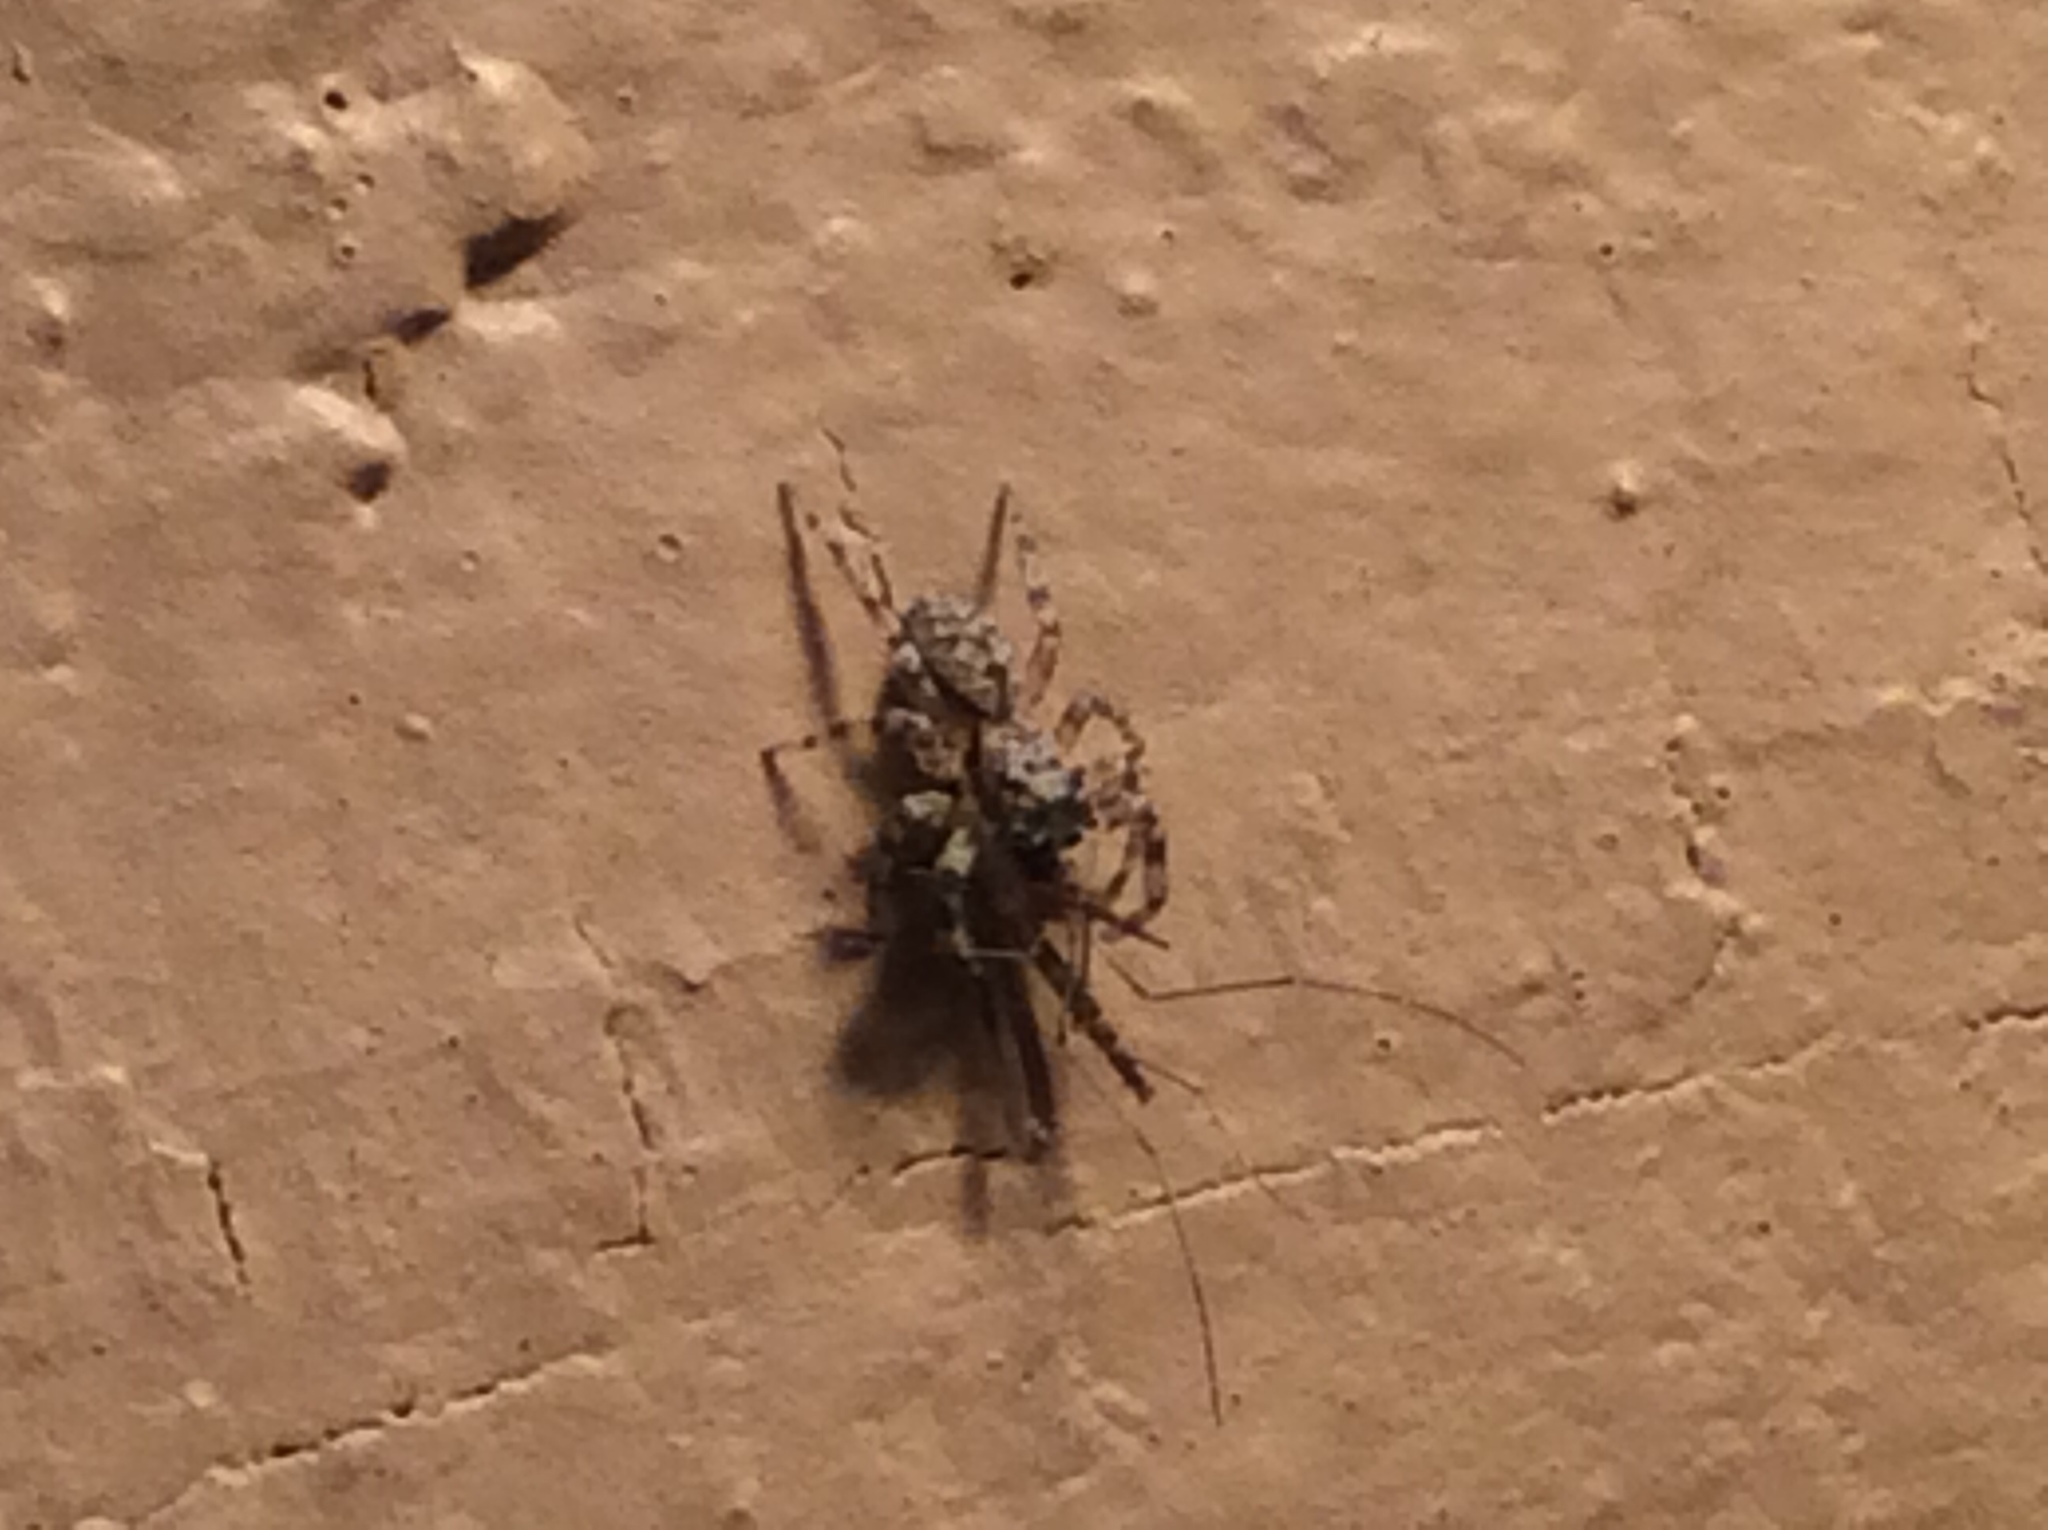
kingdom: Animalia
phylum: Arthropoda
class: Arachnida
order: Araneae
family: Salticidae
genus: Platycryptus
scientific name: Platycryptus undatus
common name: Tan jumping spider
